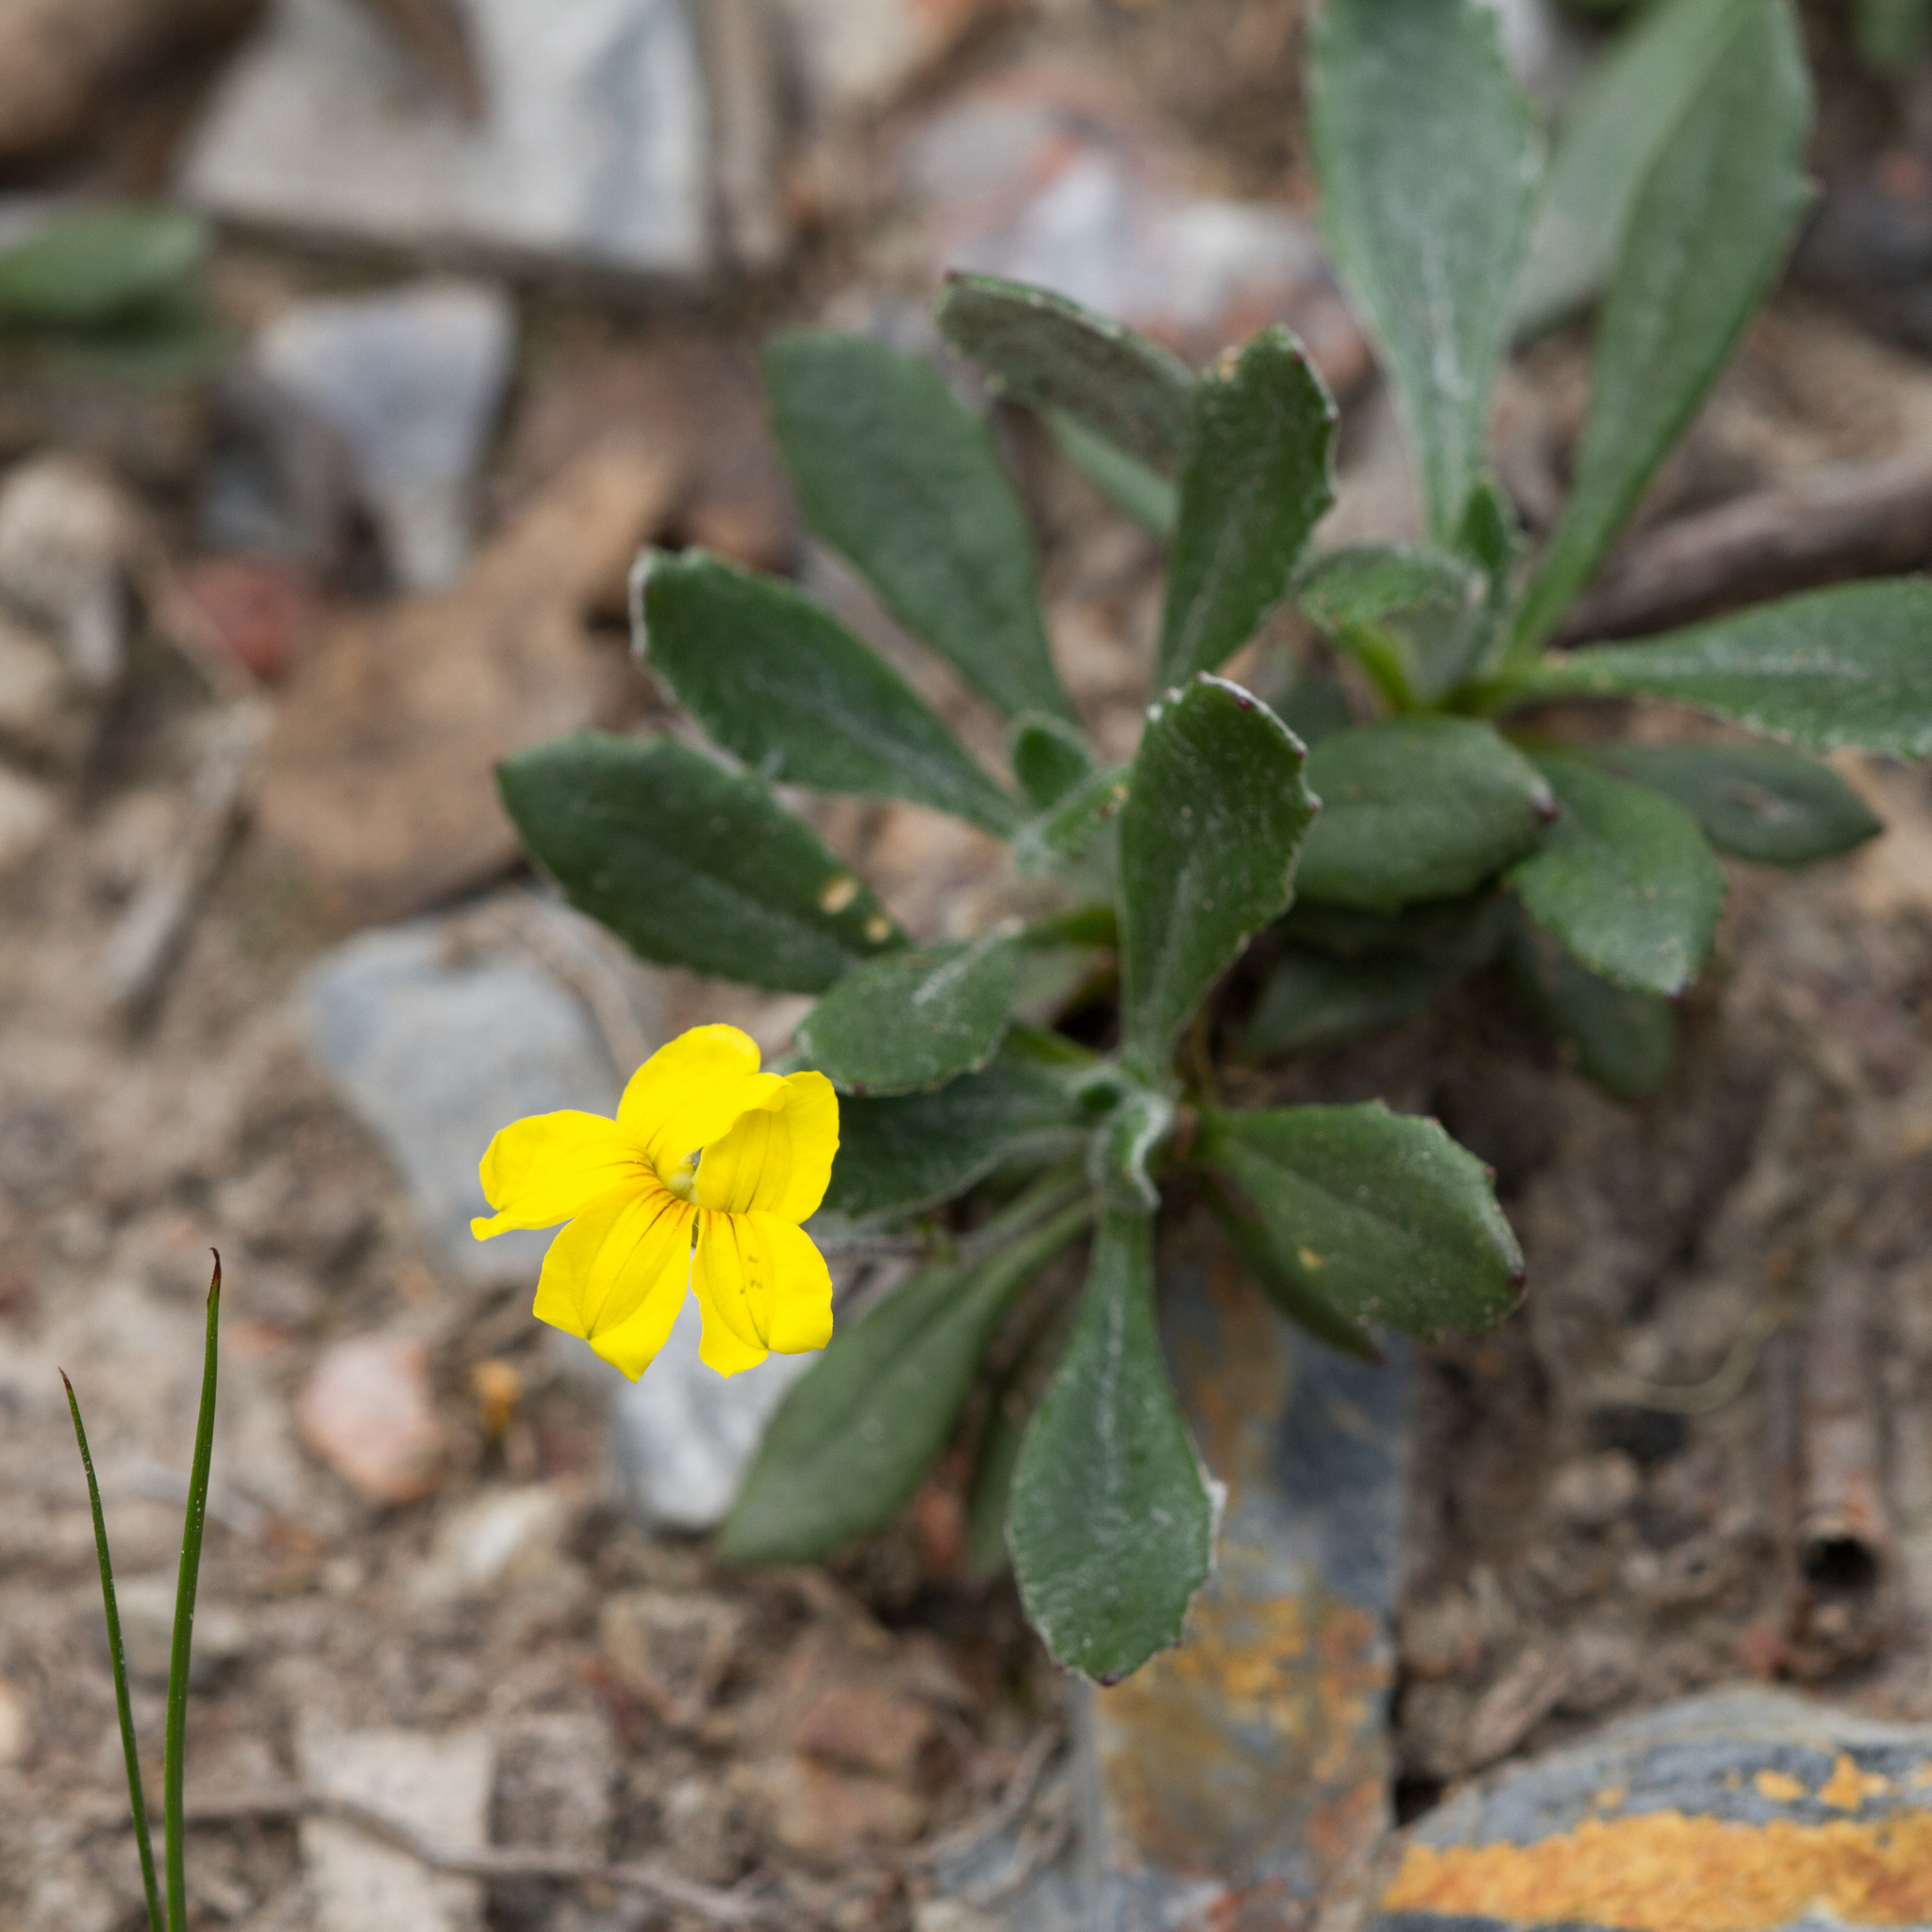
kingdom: Plantae
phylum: Tracheophyta
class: Magnoliopsida
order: Asterales
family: Goodeniaceae
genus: Goodenia
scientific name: Goodenia blackiana
